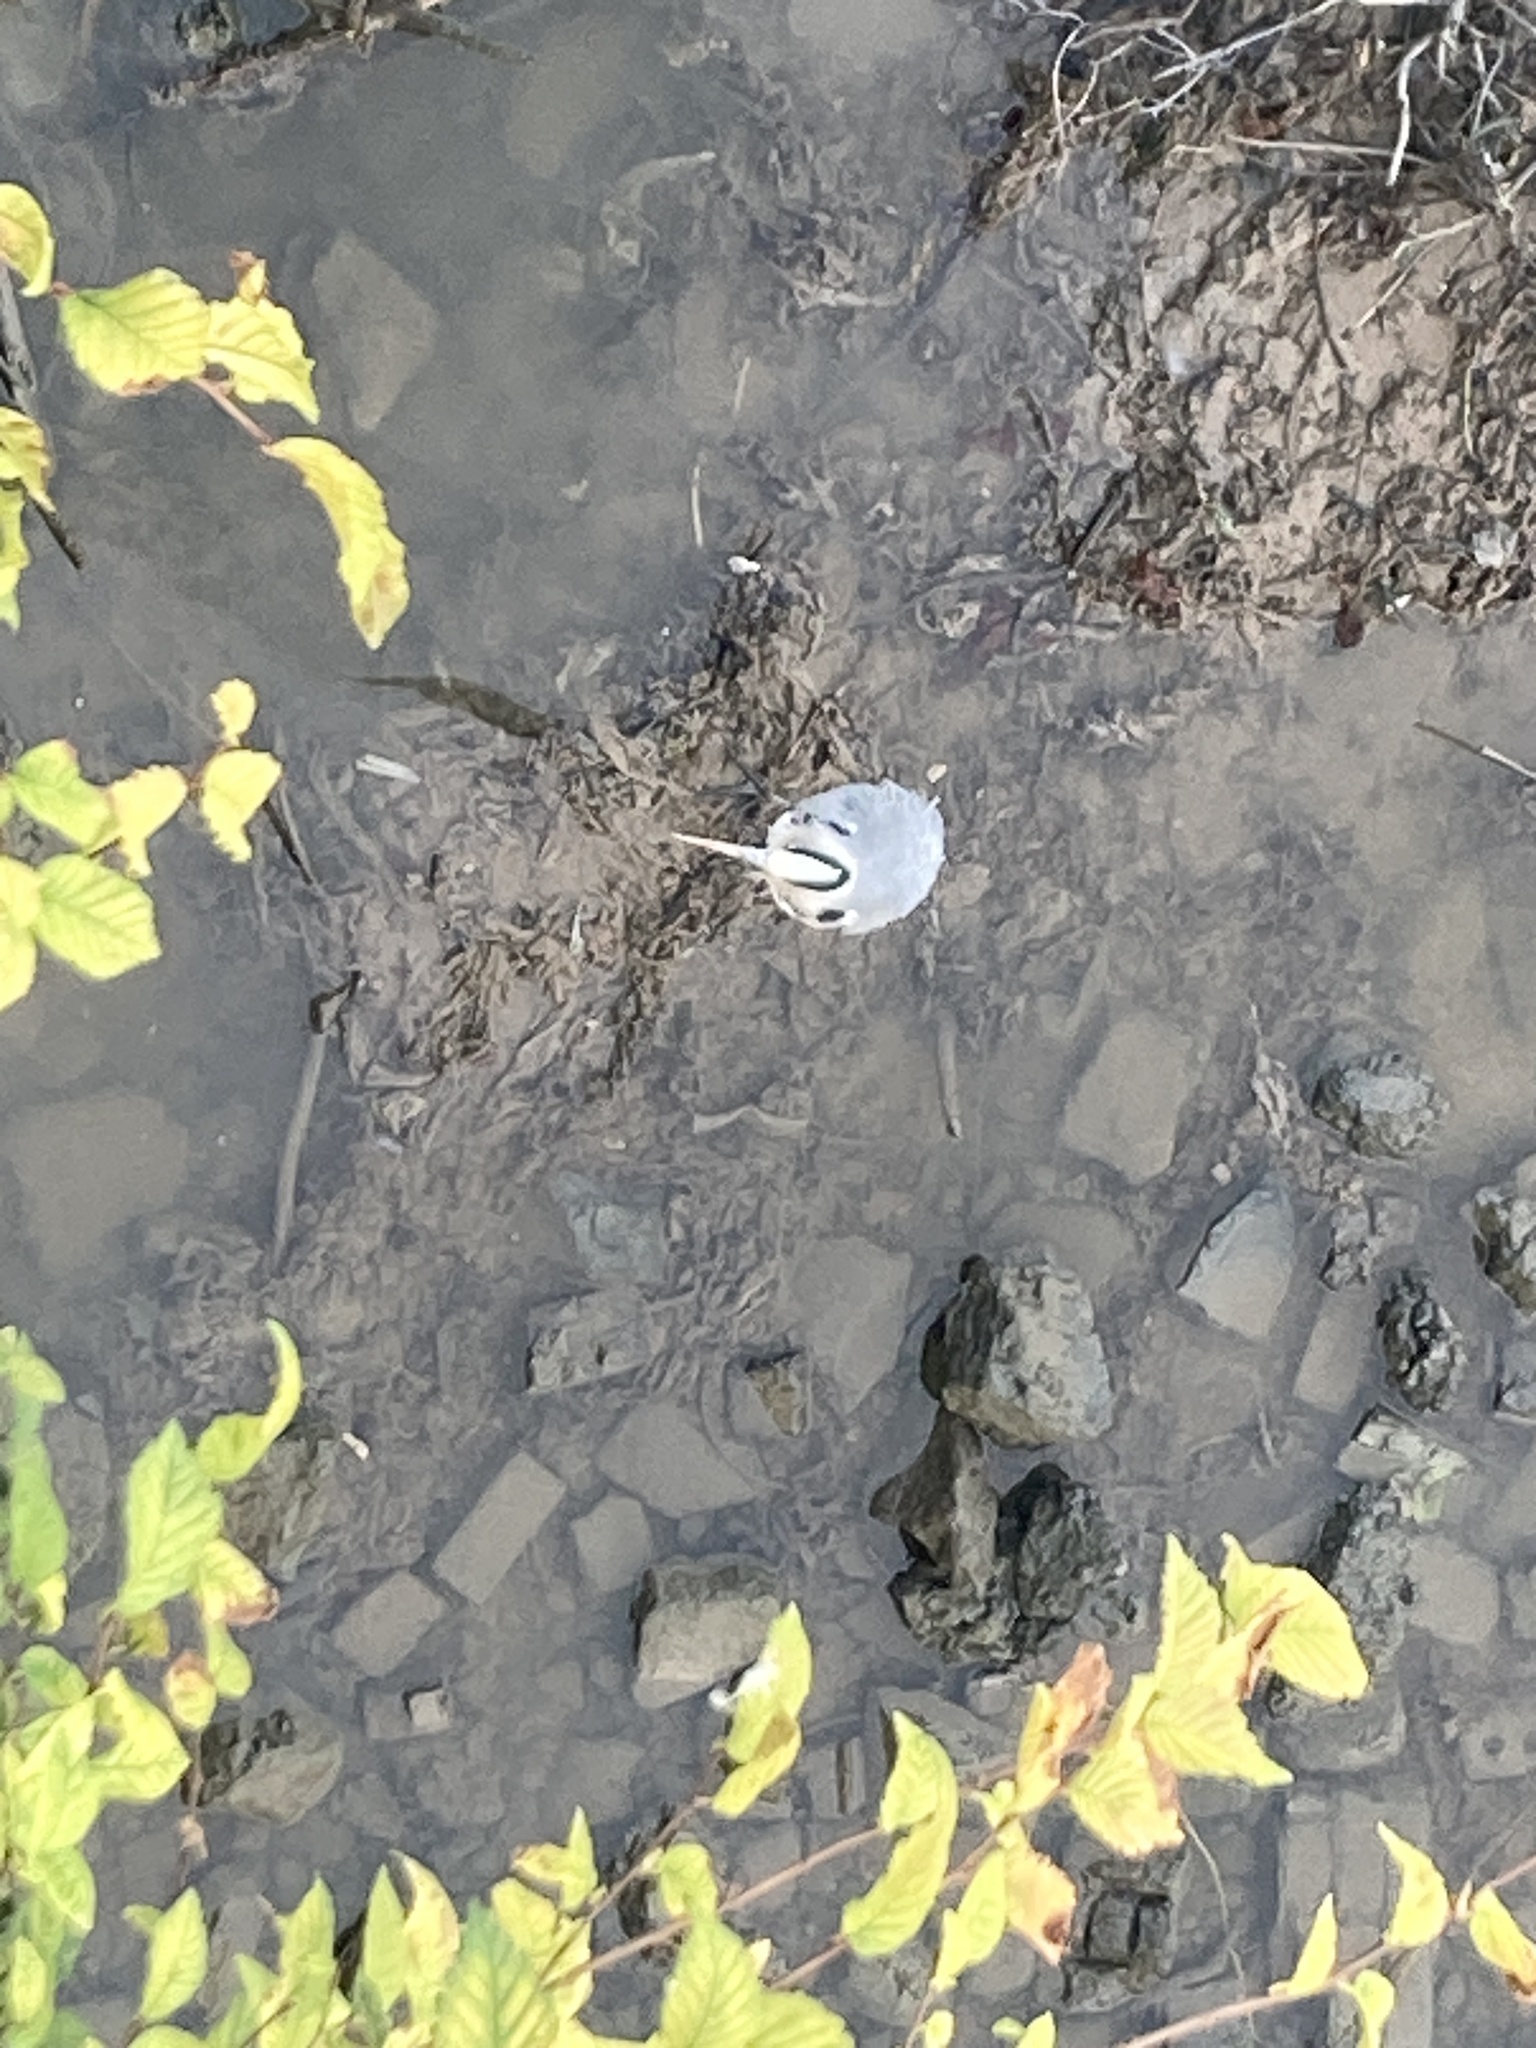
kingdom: Animalia
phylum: Chordata
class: Aves
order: Pelecaniformes
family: Ardeidae
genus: Ardea
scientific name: Ardea cinerea
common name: Grey heron
